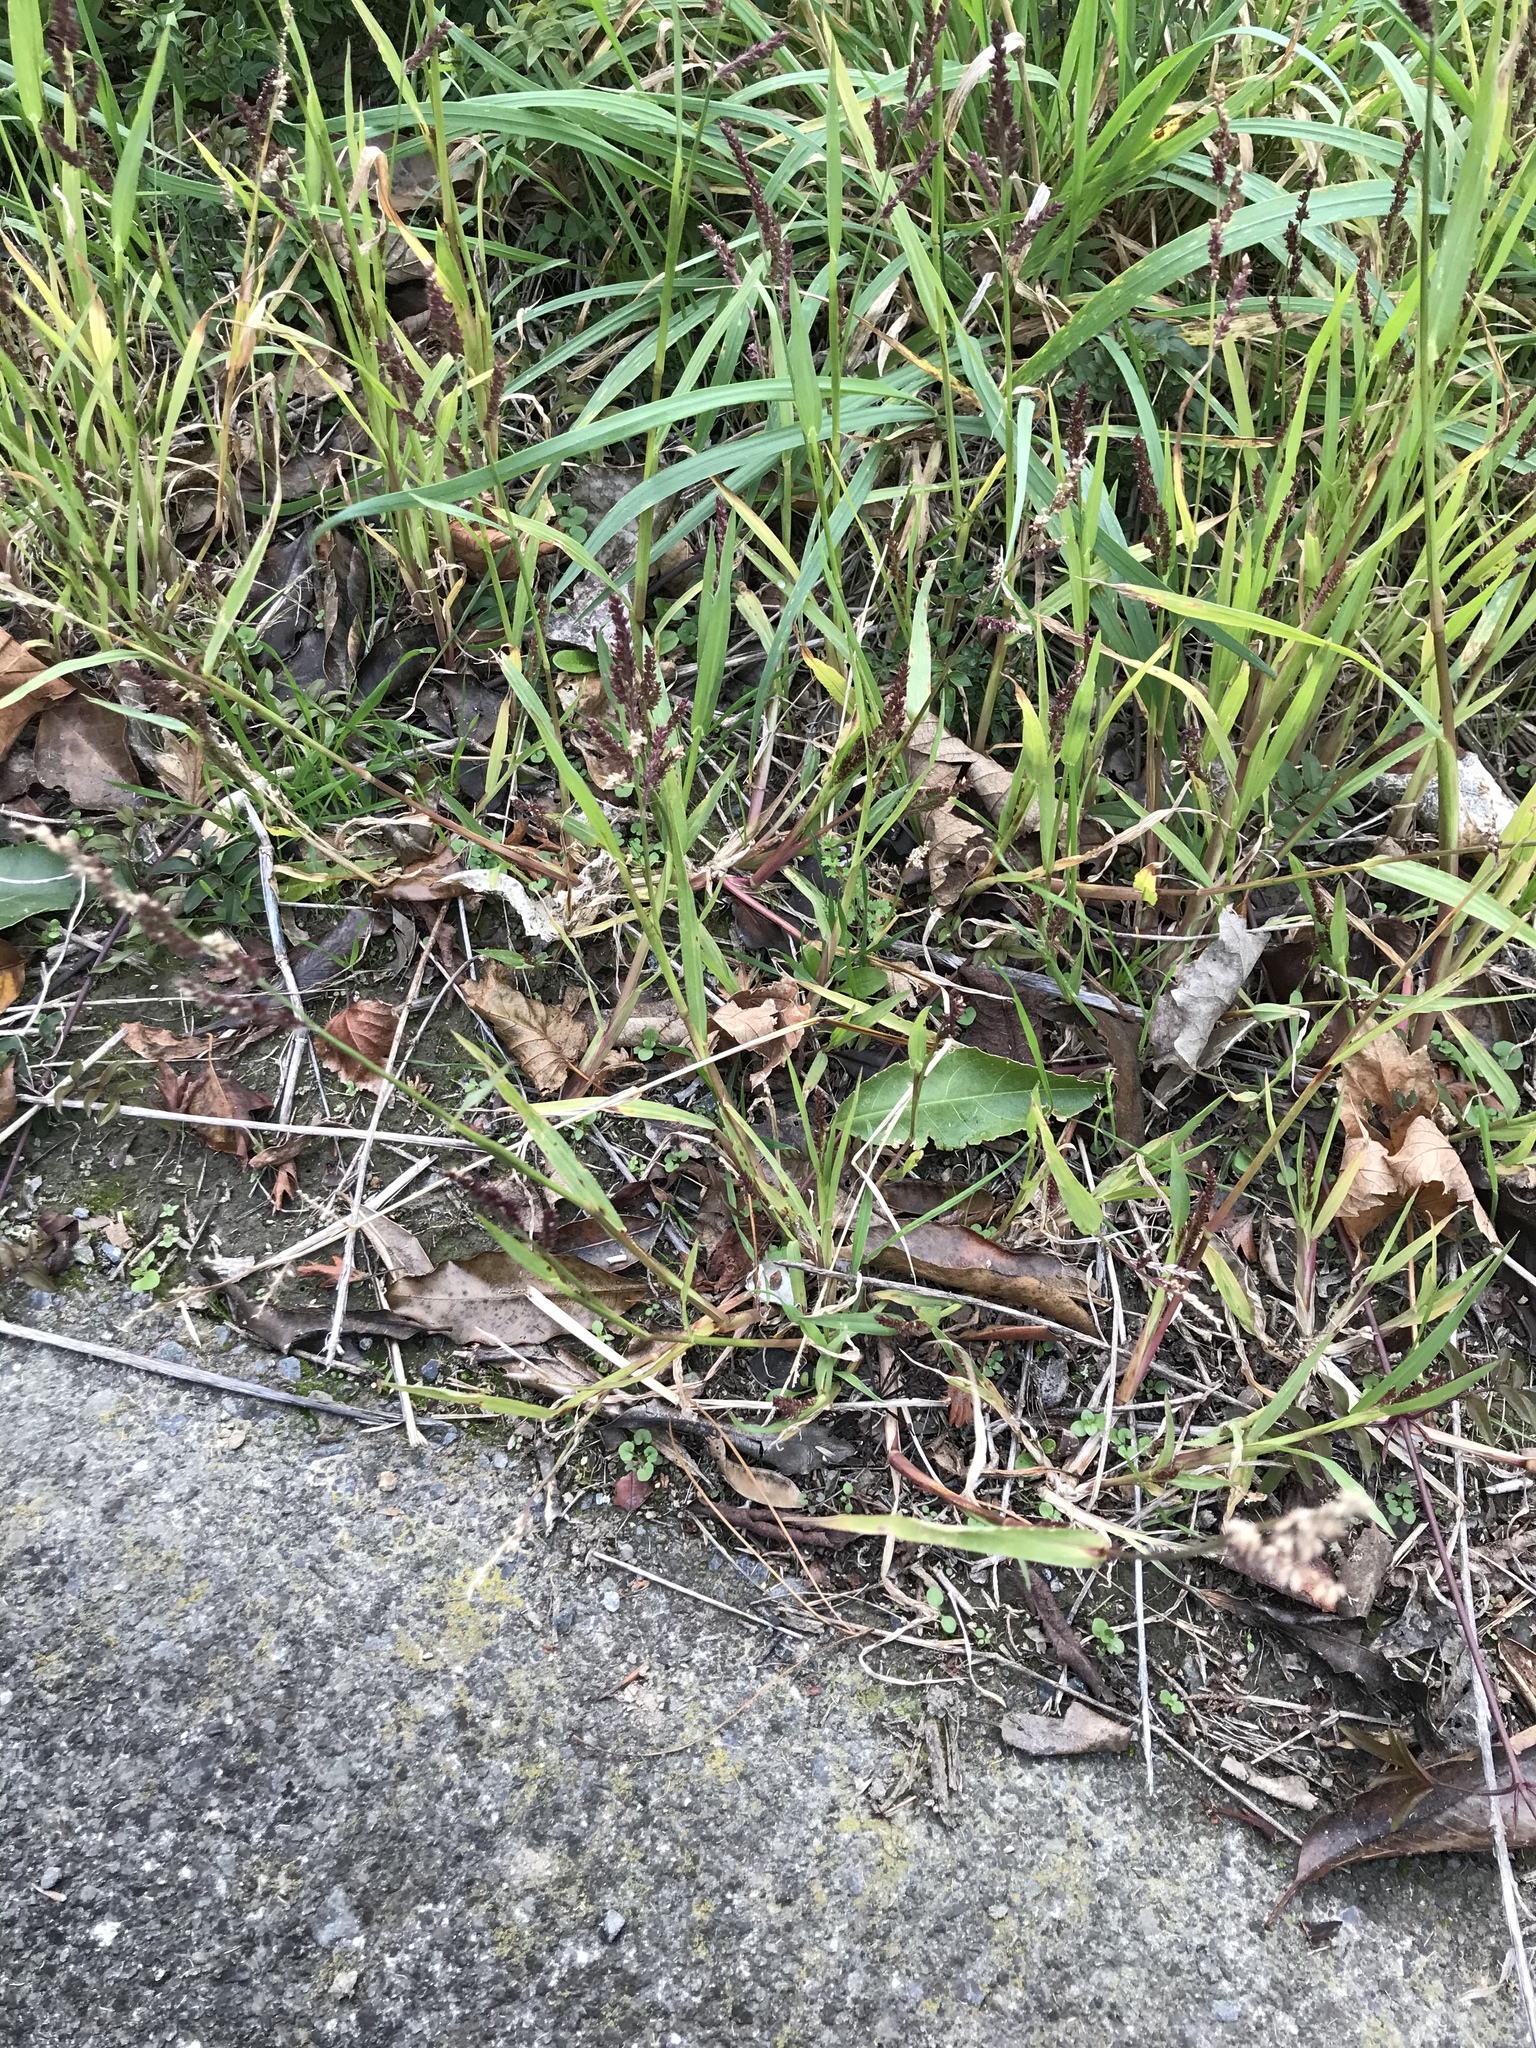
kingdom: Plantae
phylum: Tracheophyta
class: Liliopsida
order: Poales
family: Poaceae
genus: Echinochloa
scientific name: Echinochloa crus-galli
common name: Cockspur
